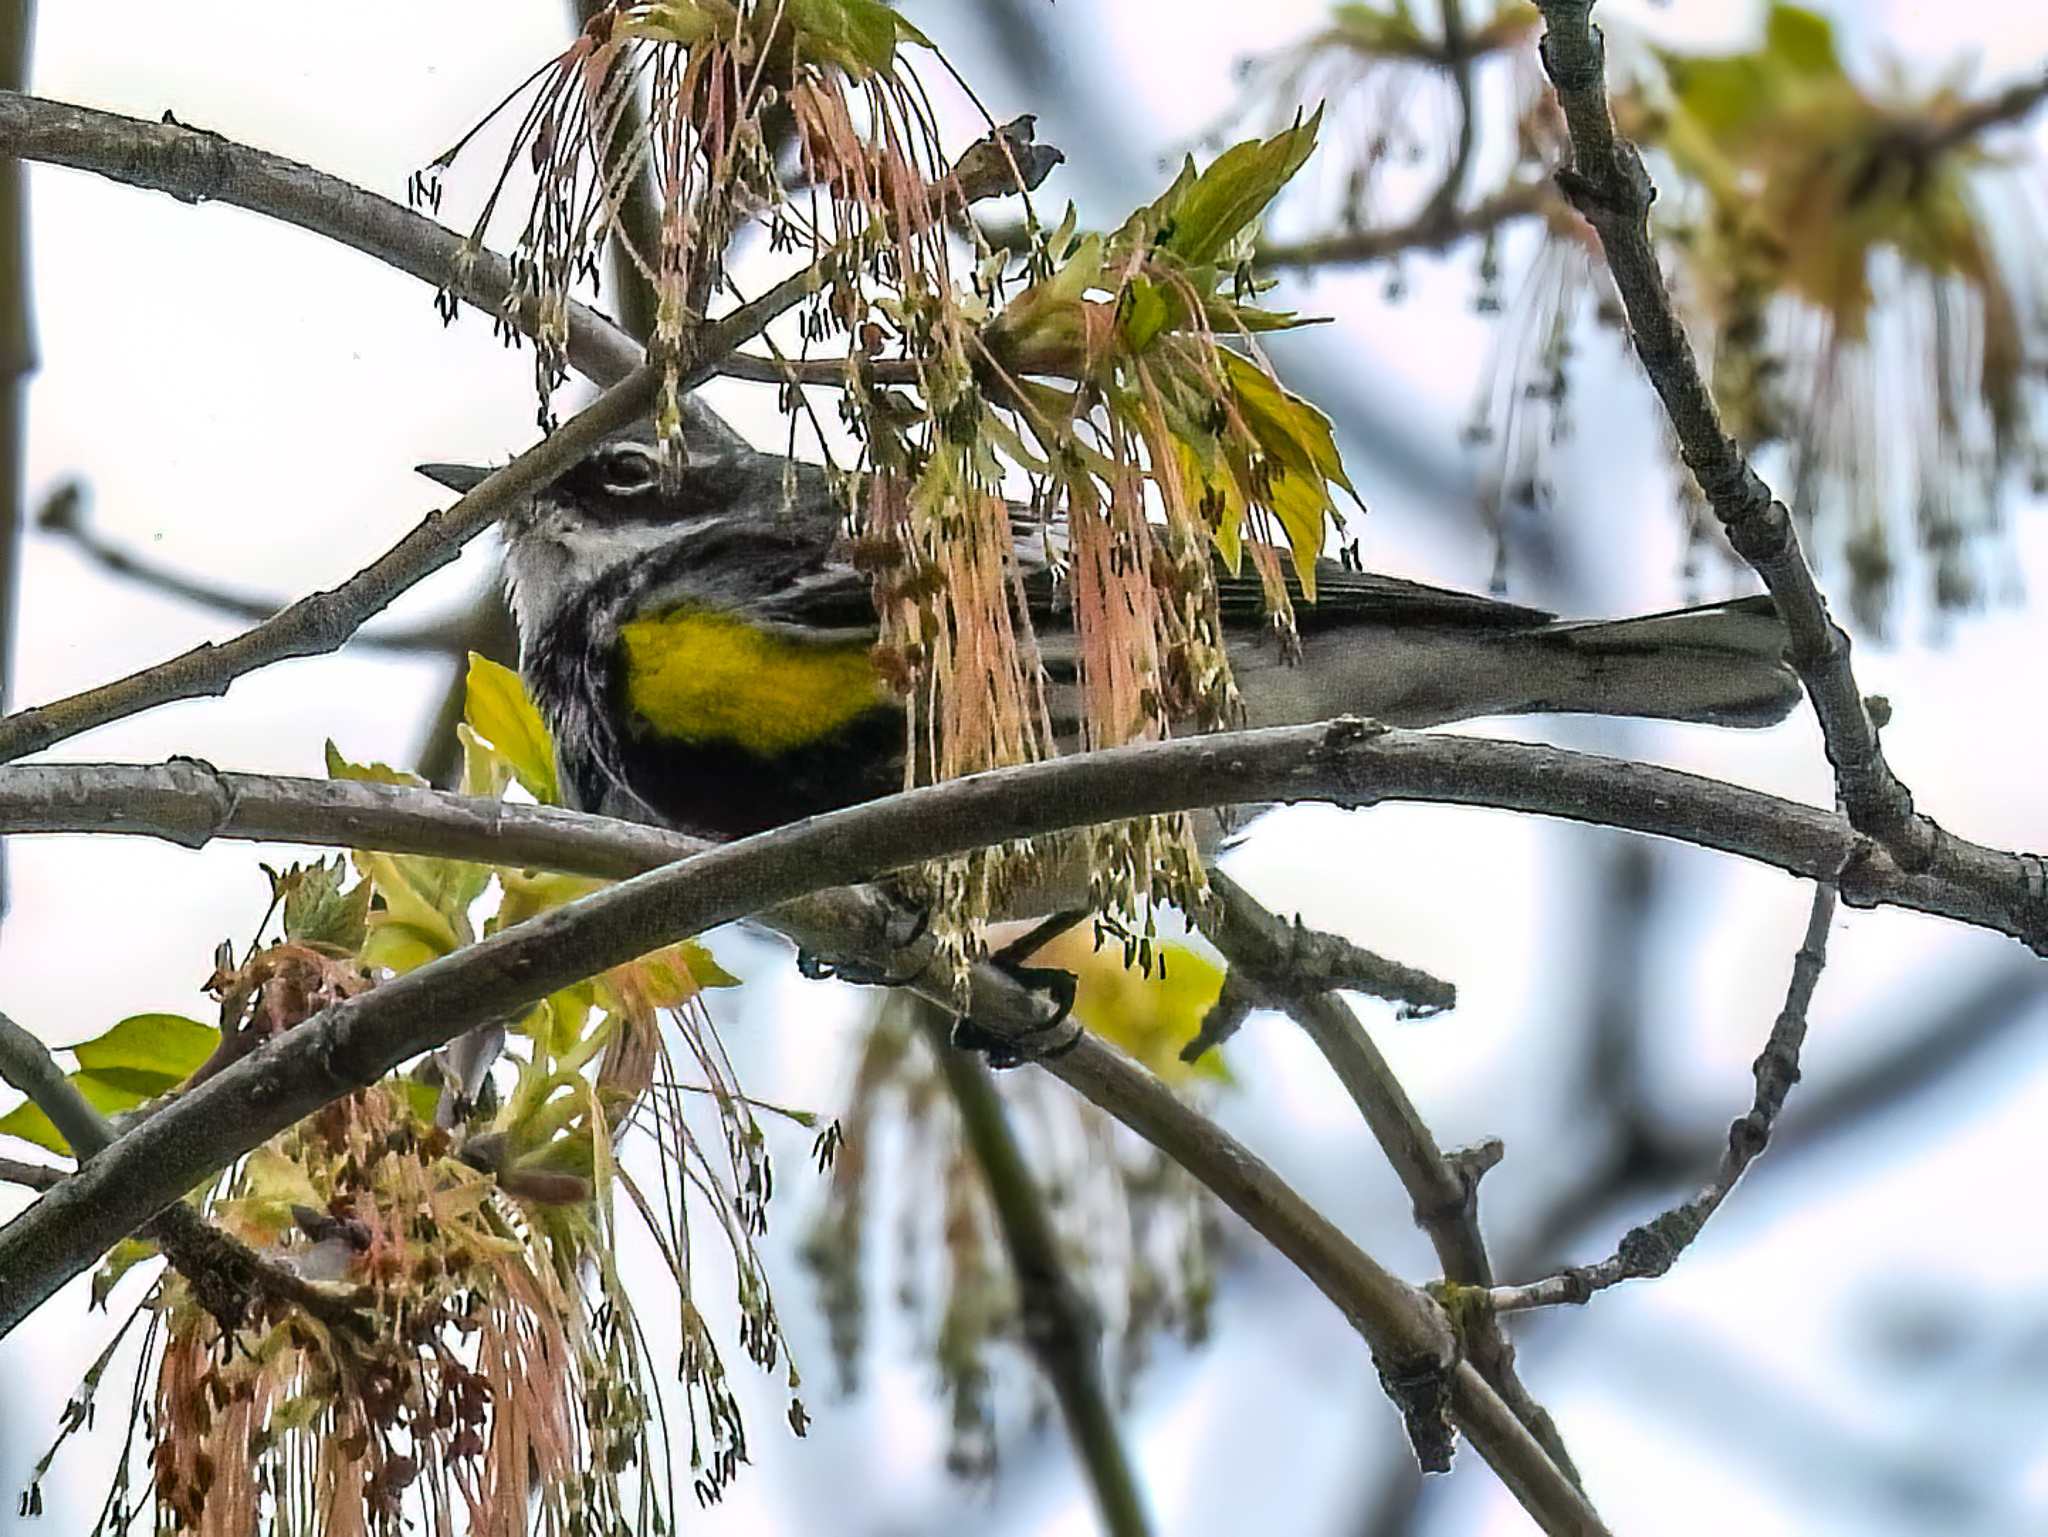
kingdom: Animalia
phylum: Chordata
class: Aves
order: Passeriformes
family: Parulidae
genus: Setophaga
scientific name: Setophaga coronata
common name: Myrtle warbler
